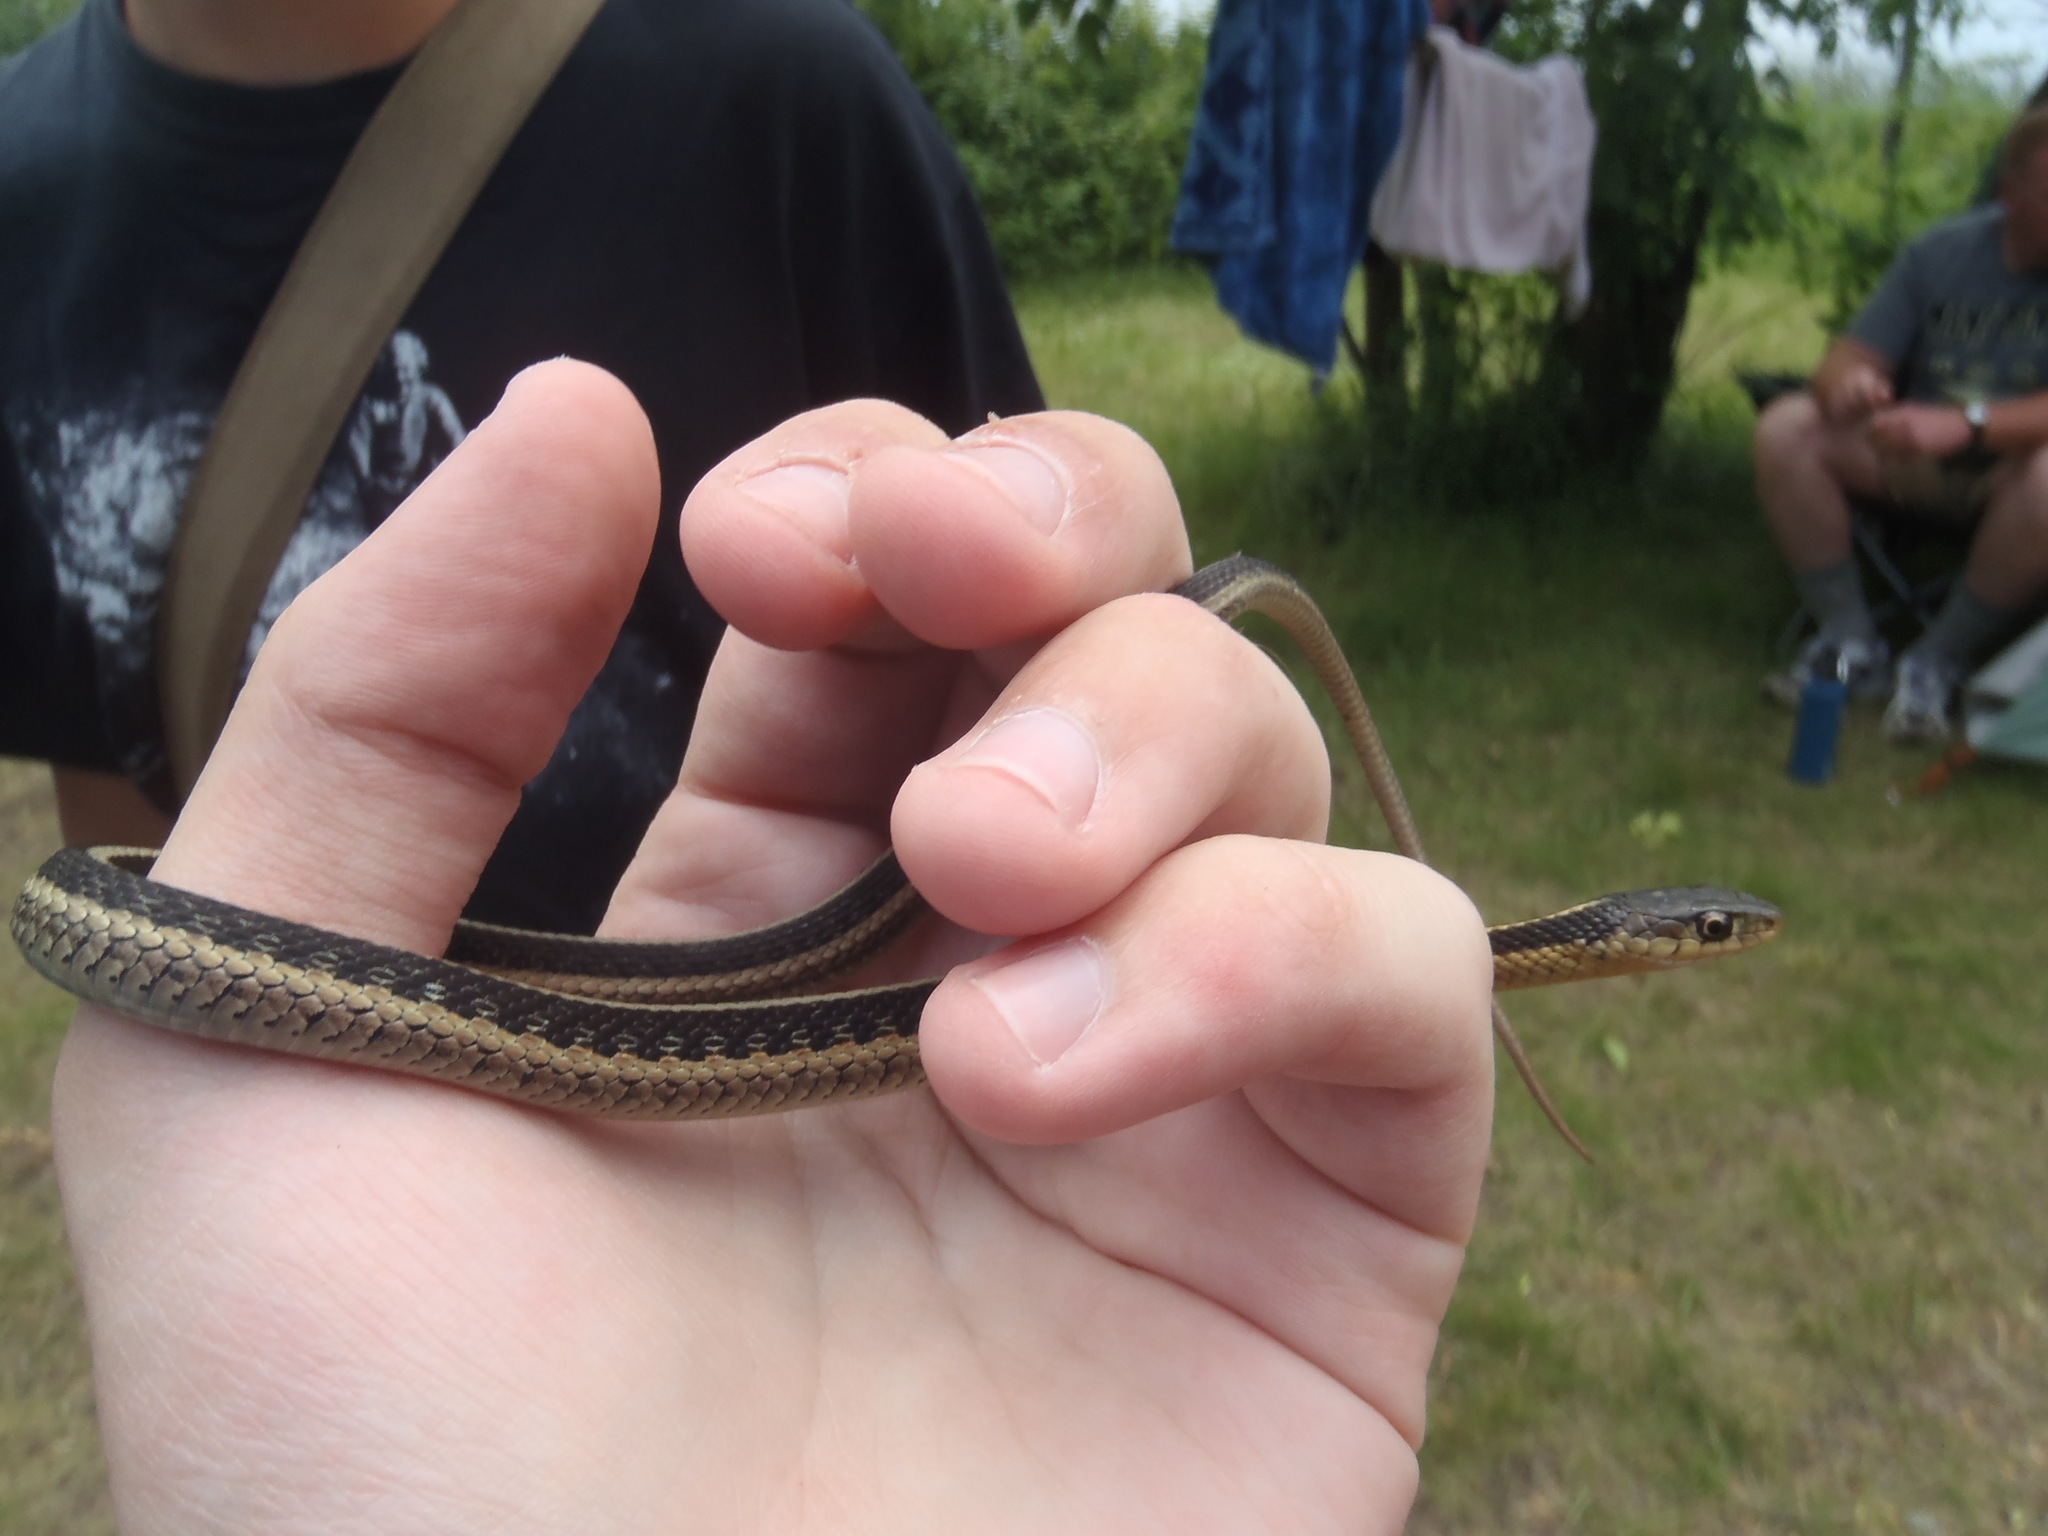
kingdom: Animalia
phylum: Chordata
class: Squamata
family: Colubridae
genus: Thamnophis
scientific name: Thamnophis sirtalis
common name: Common garter snake
